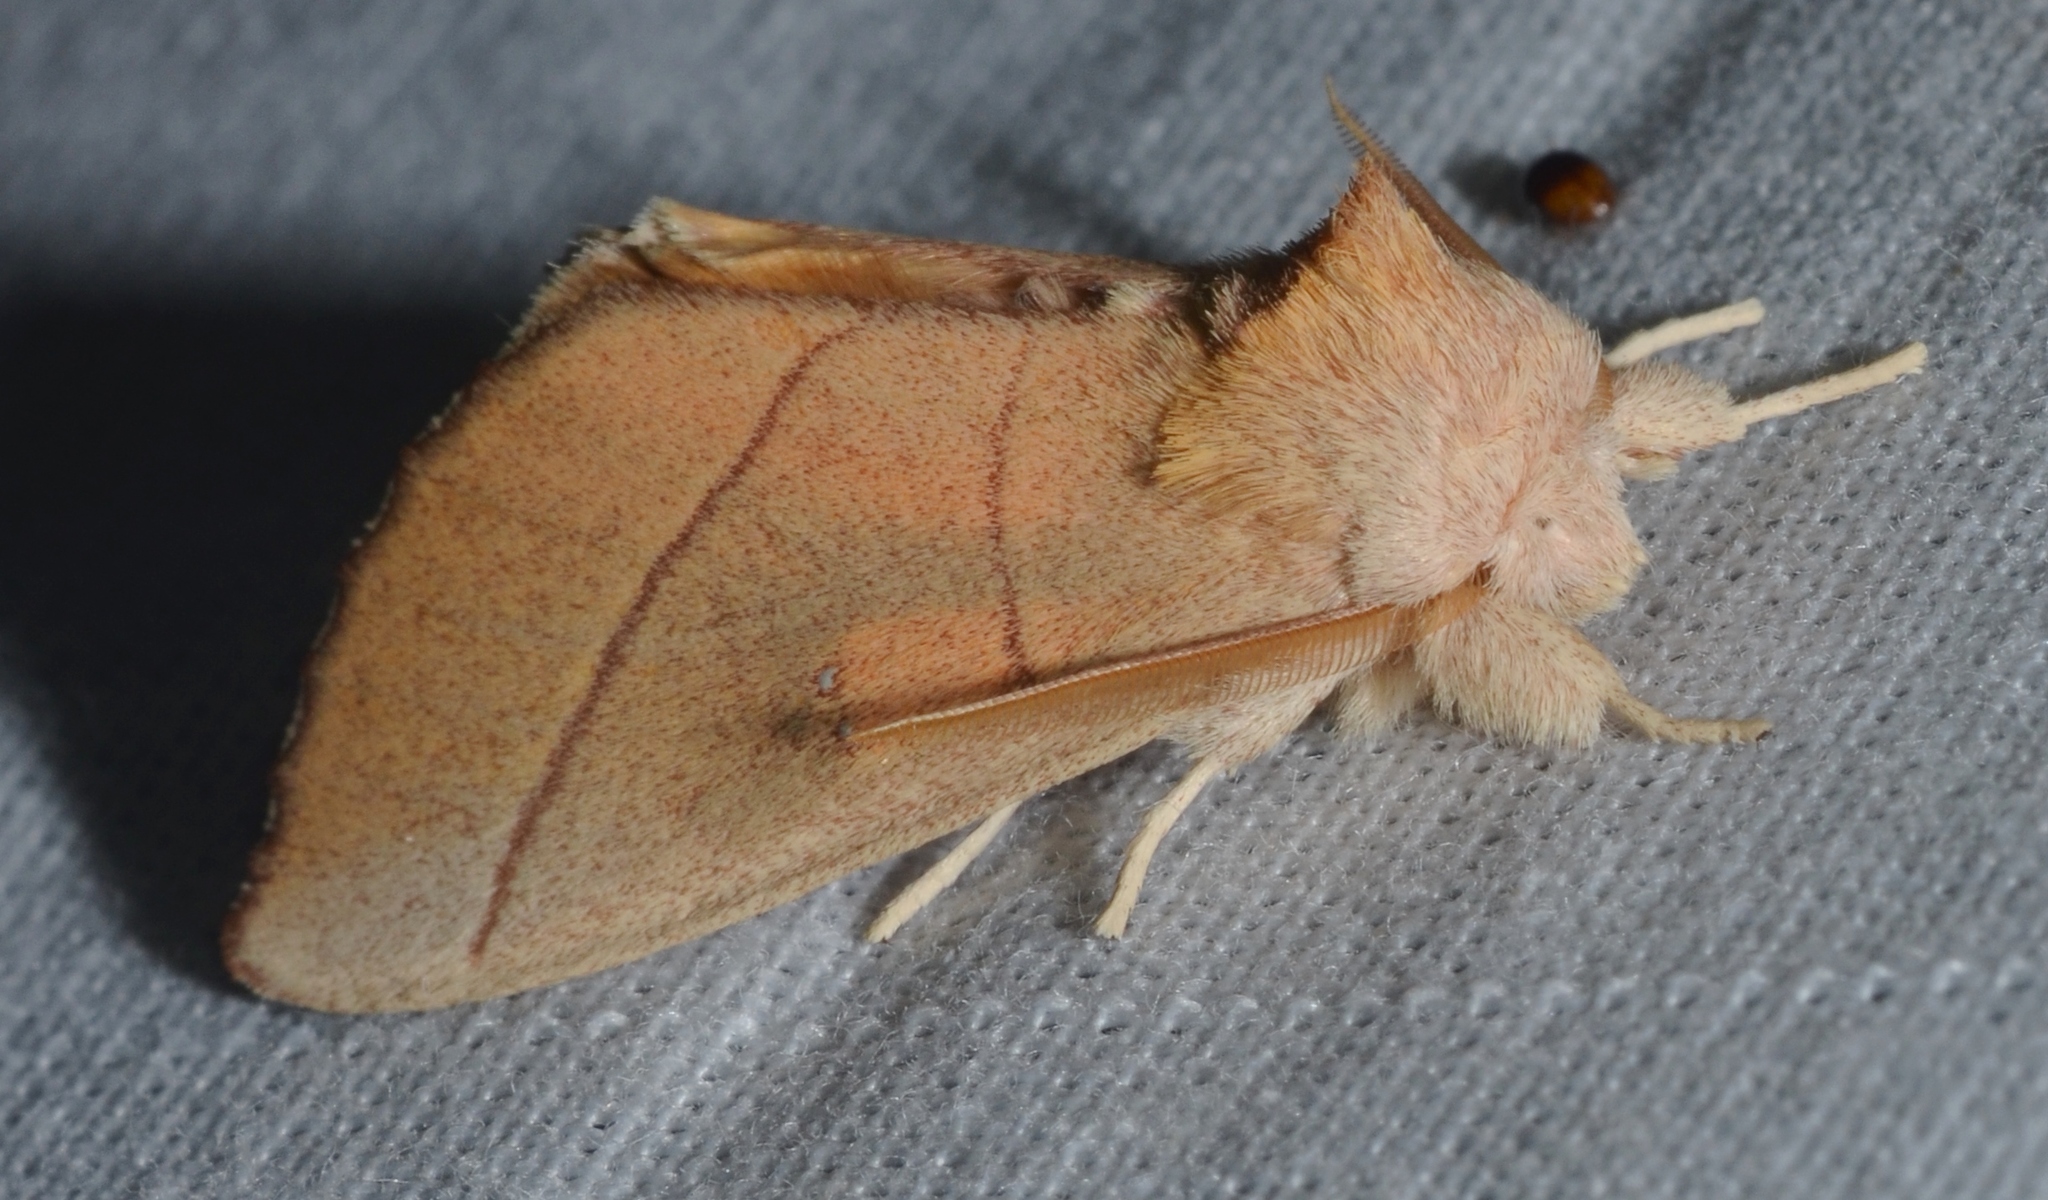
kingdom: Animalia
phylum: Arthropoda
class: Insecta
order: Lepidoptera
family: Notodontidae
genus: Nadata
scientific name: Nadata gibbosa
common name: White-dotted prominent
